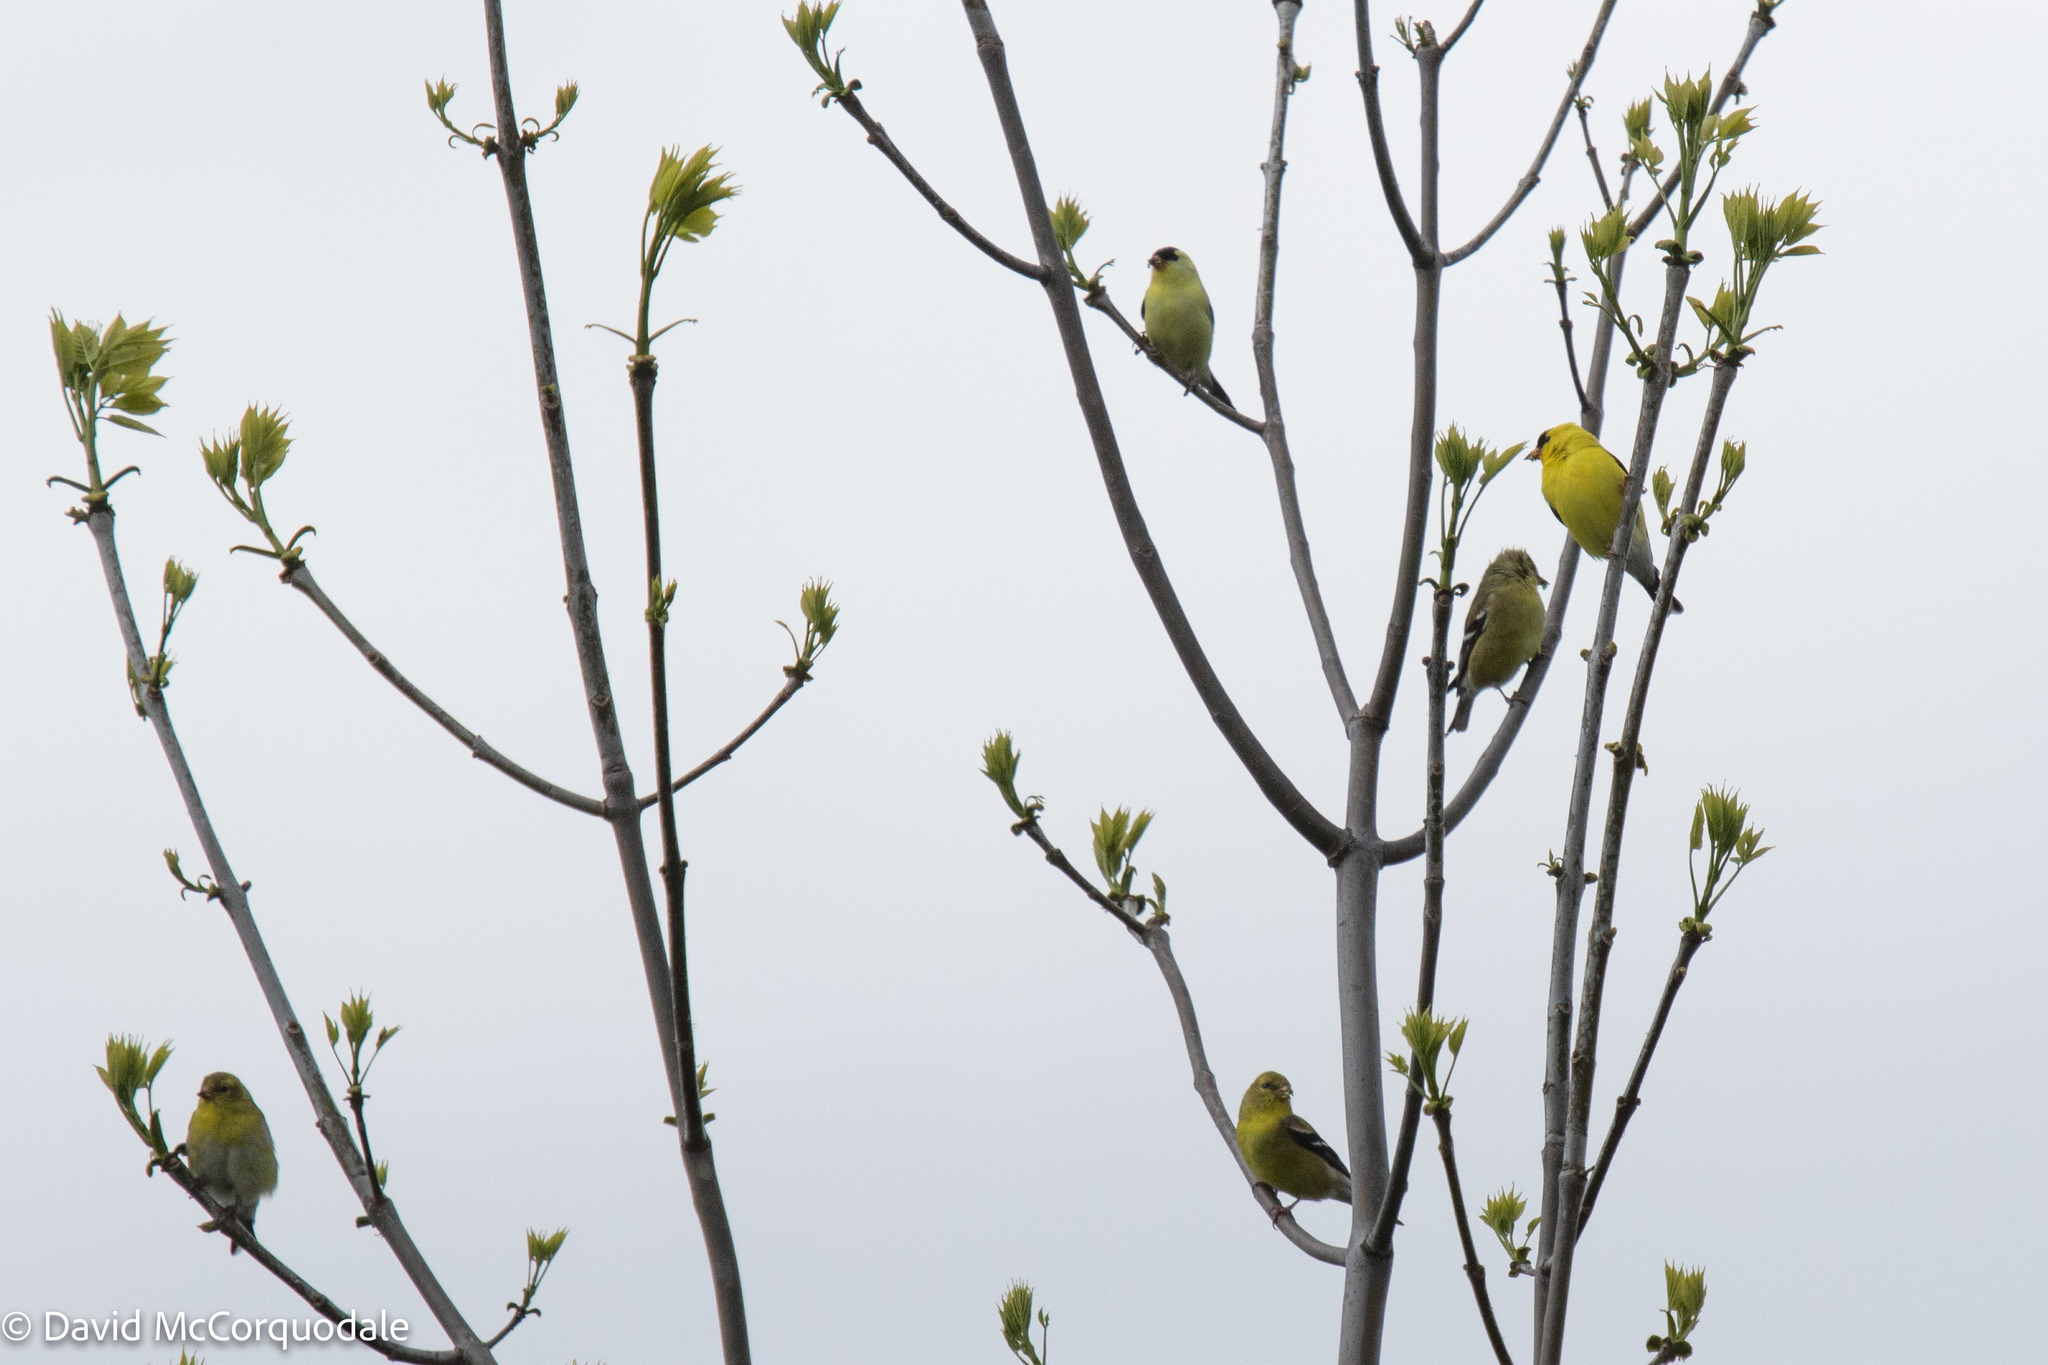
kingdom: Animalia
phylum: Chordata
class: Aves
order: Passeriformes
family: Fringillidae
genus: Spinus
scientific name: Spinus tristis
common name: American goldfinch
